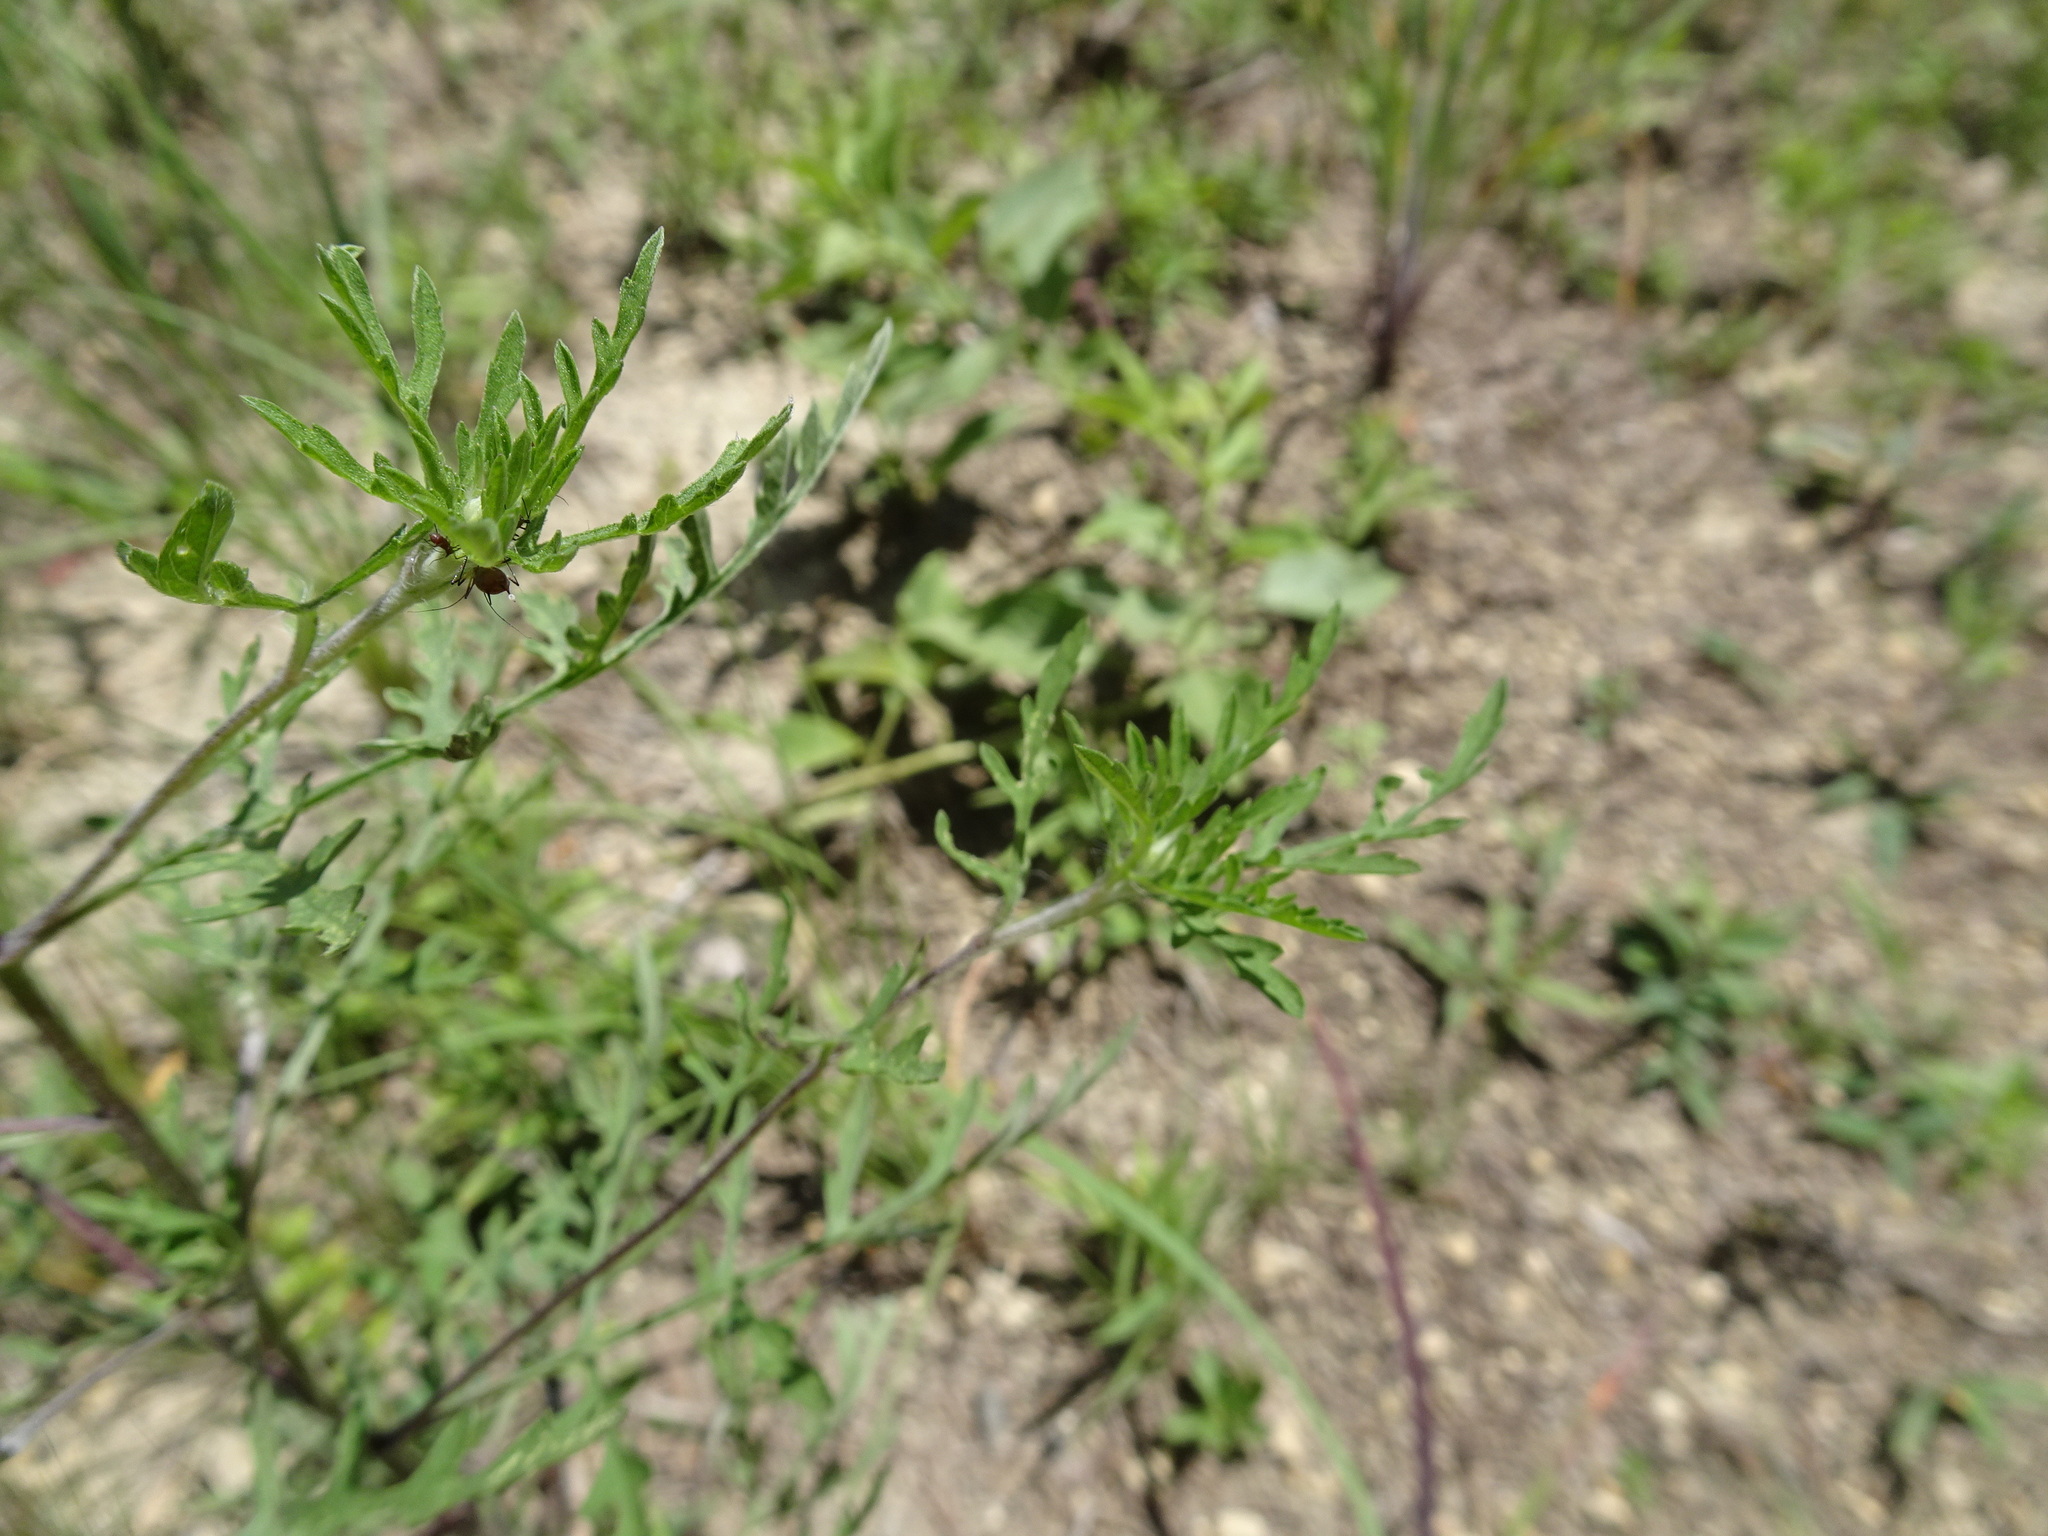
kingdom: Plantae
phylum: Tracheophyta
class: Magnoliopsida
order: Asterales
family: Asteraceae
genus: Ambrosia
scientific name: Ambrosia artemisiifolia
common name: Annual ragweed
